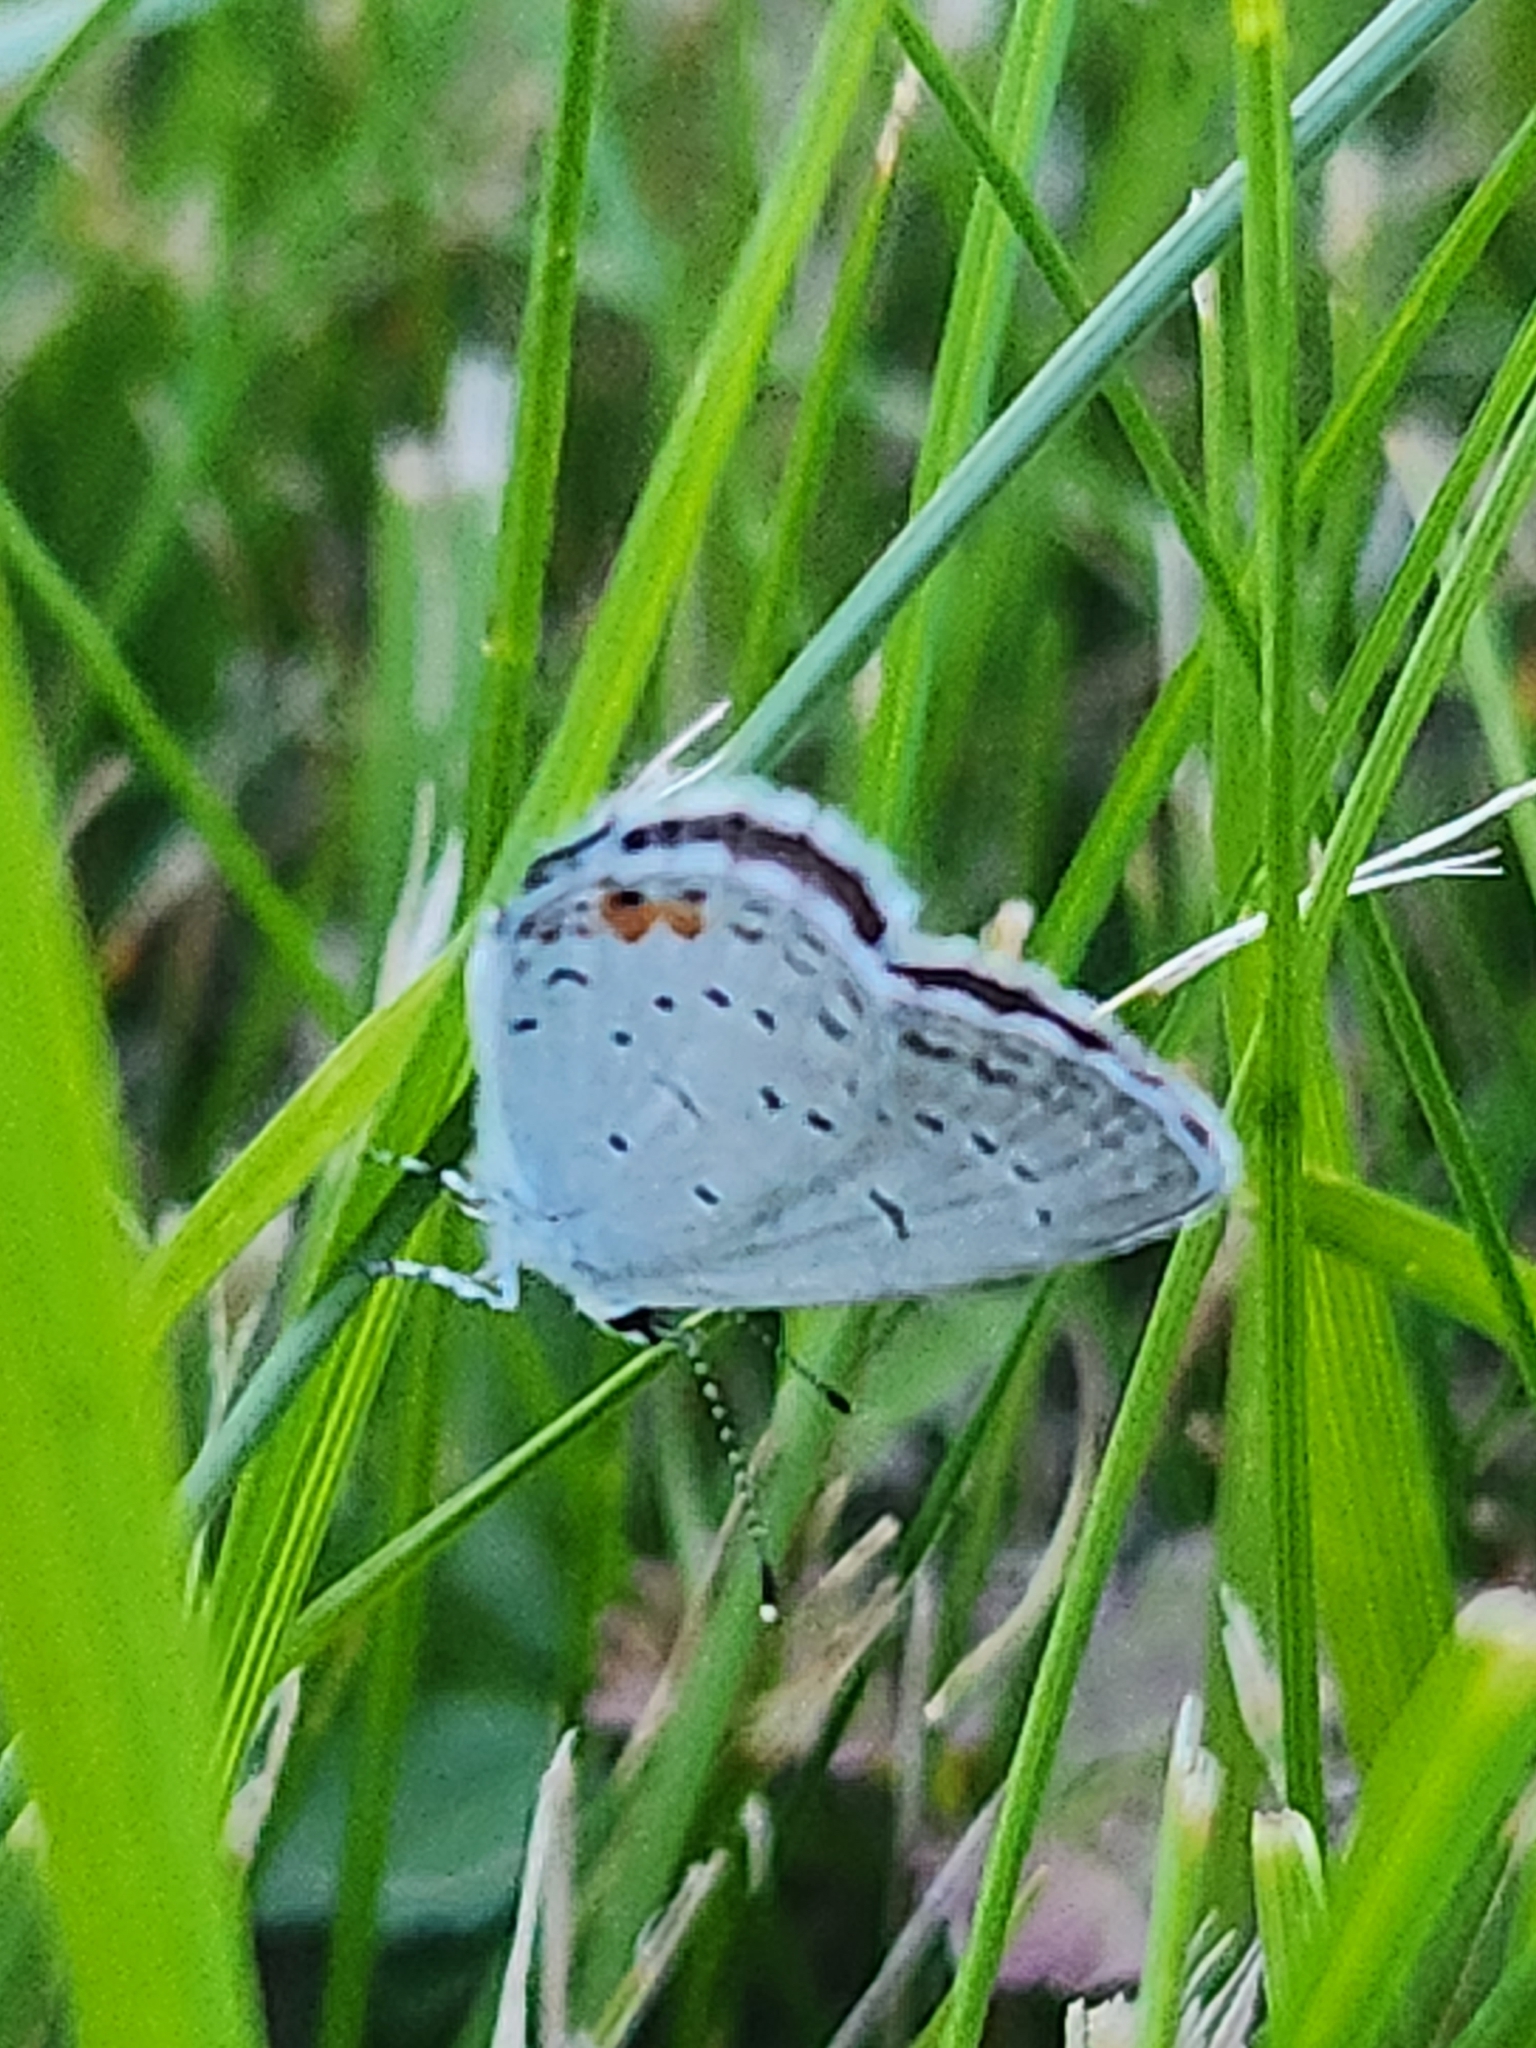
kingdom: Animalia
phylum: Arthropoda
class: Insecta
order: Lepidoptera
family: Lycaenidae
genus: Elkalyce
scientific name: Elkalyce comyntas
